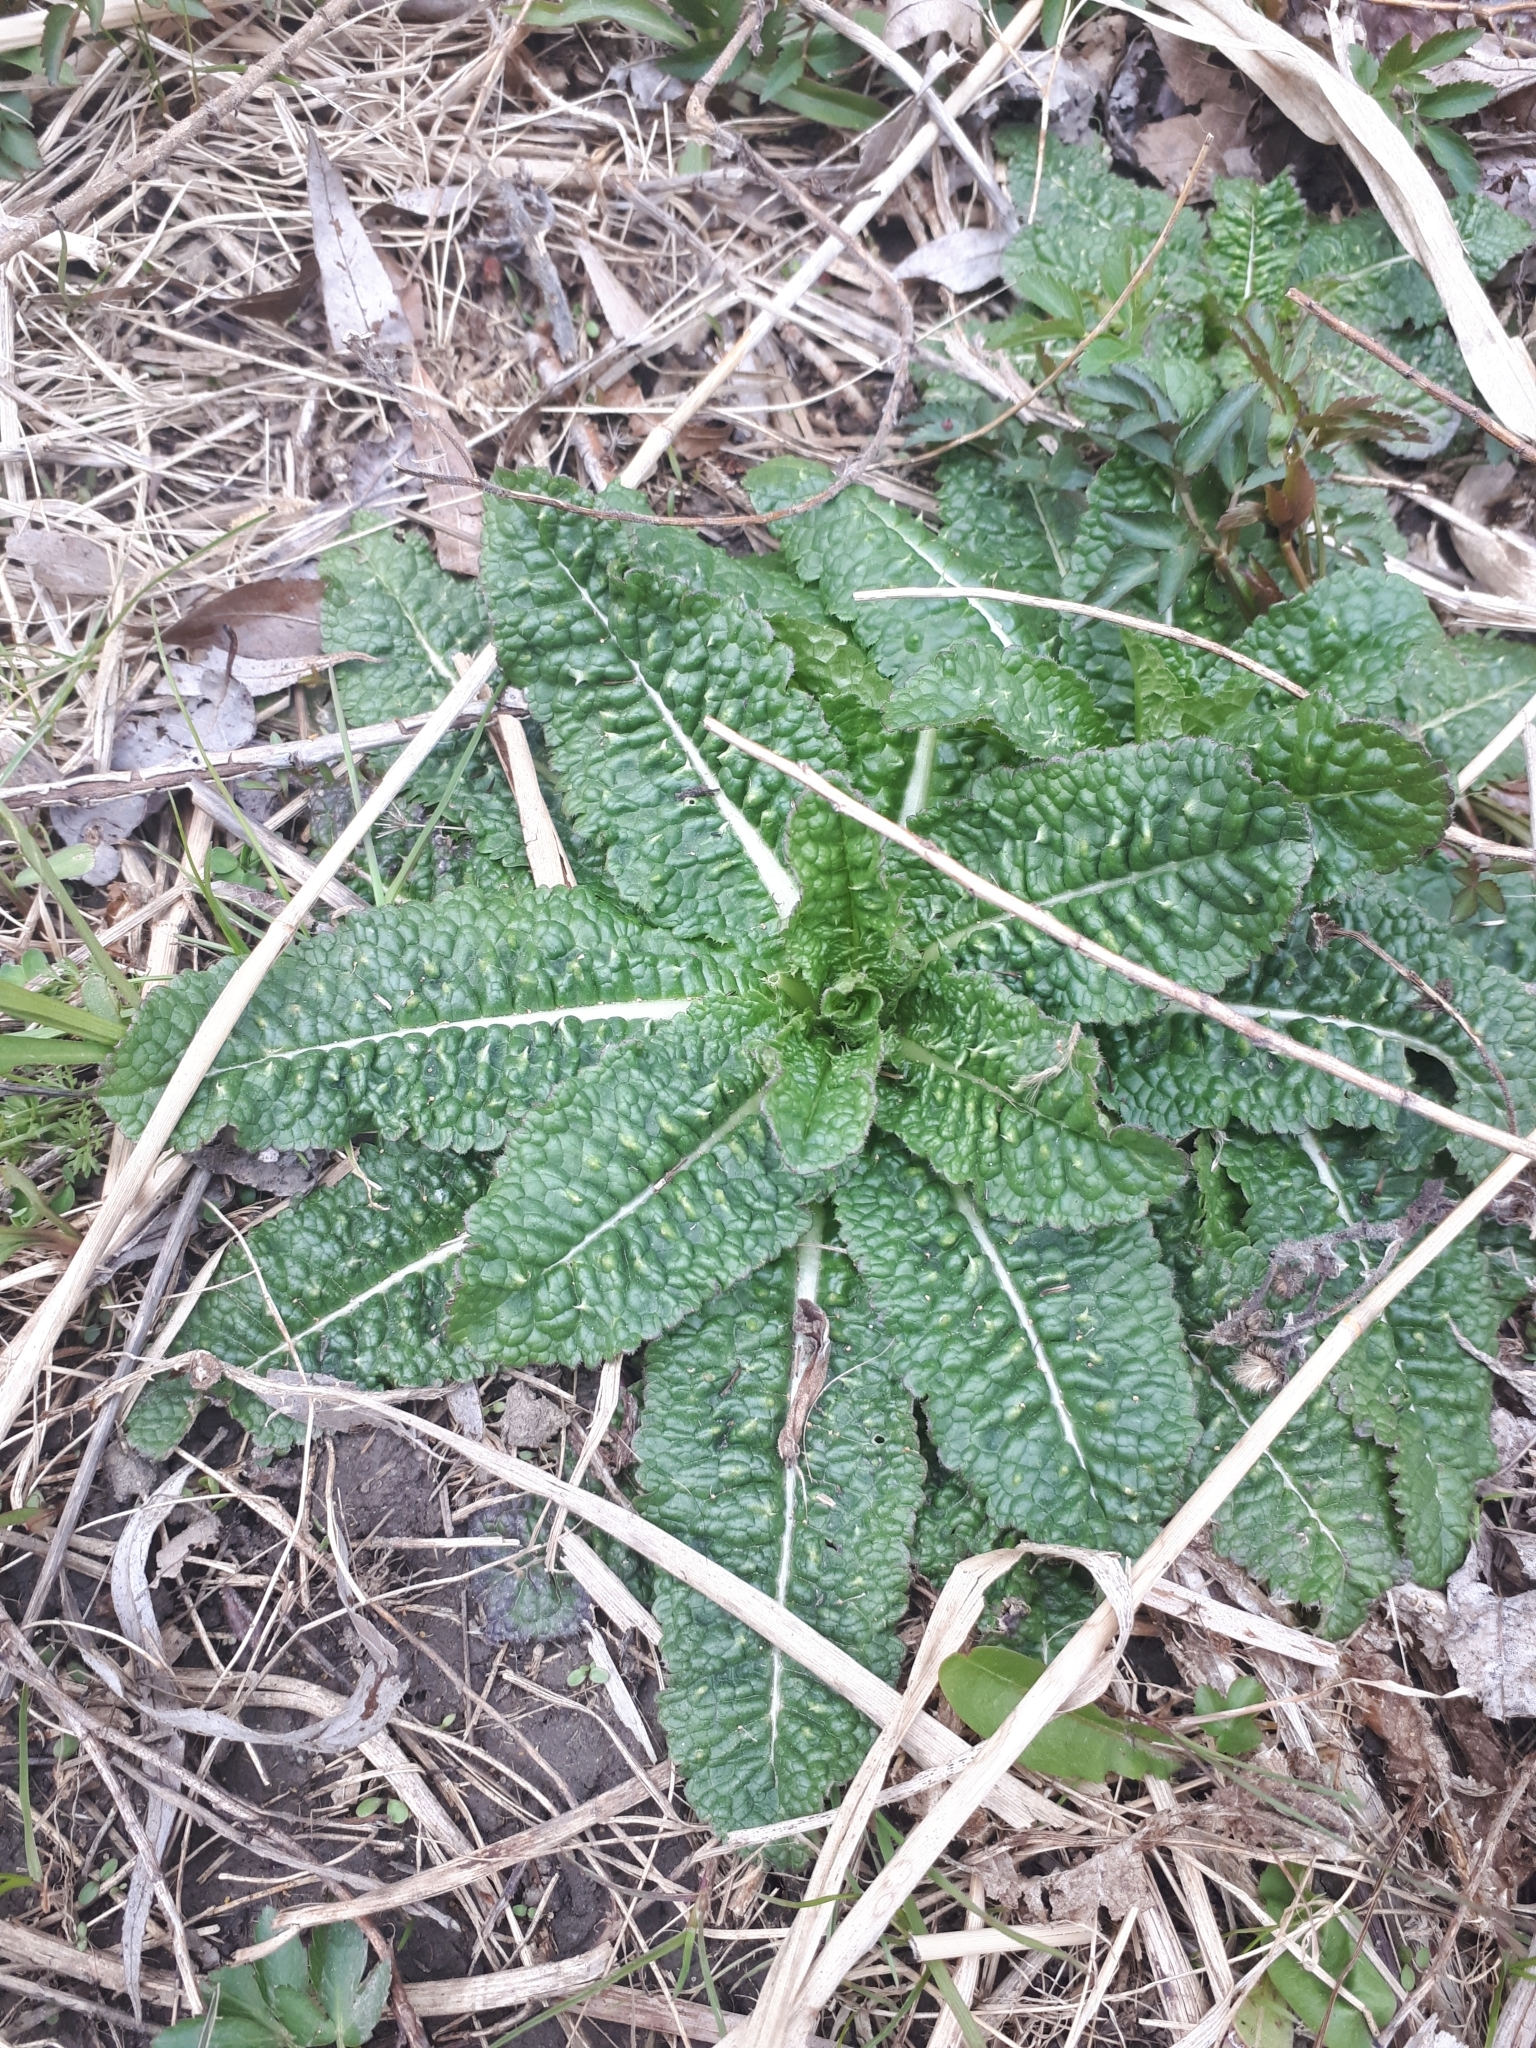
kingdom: Plantae
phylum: Tracheophyta
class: Magnoliopsida
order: Dipsacales
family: Caprifoliaceae
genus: Dipsacus
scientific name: Dipsacus fullonum
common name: Teasel
